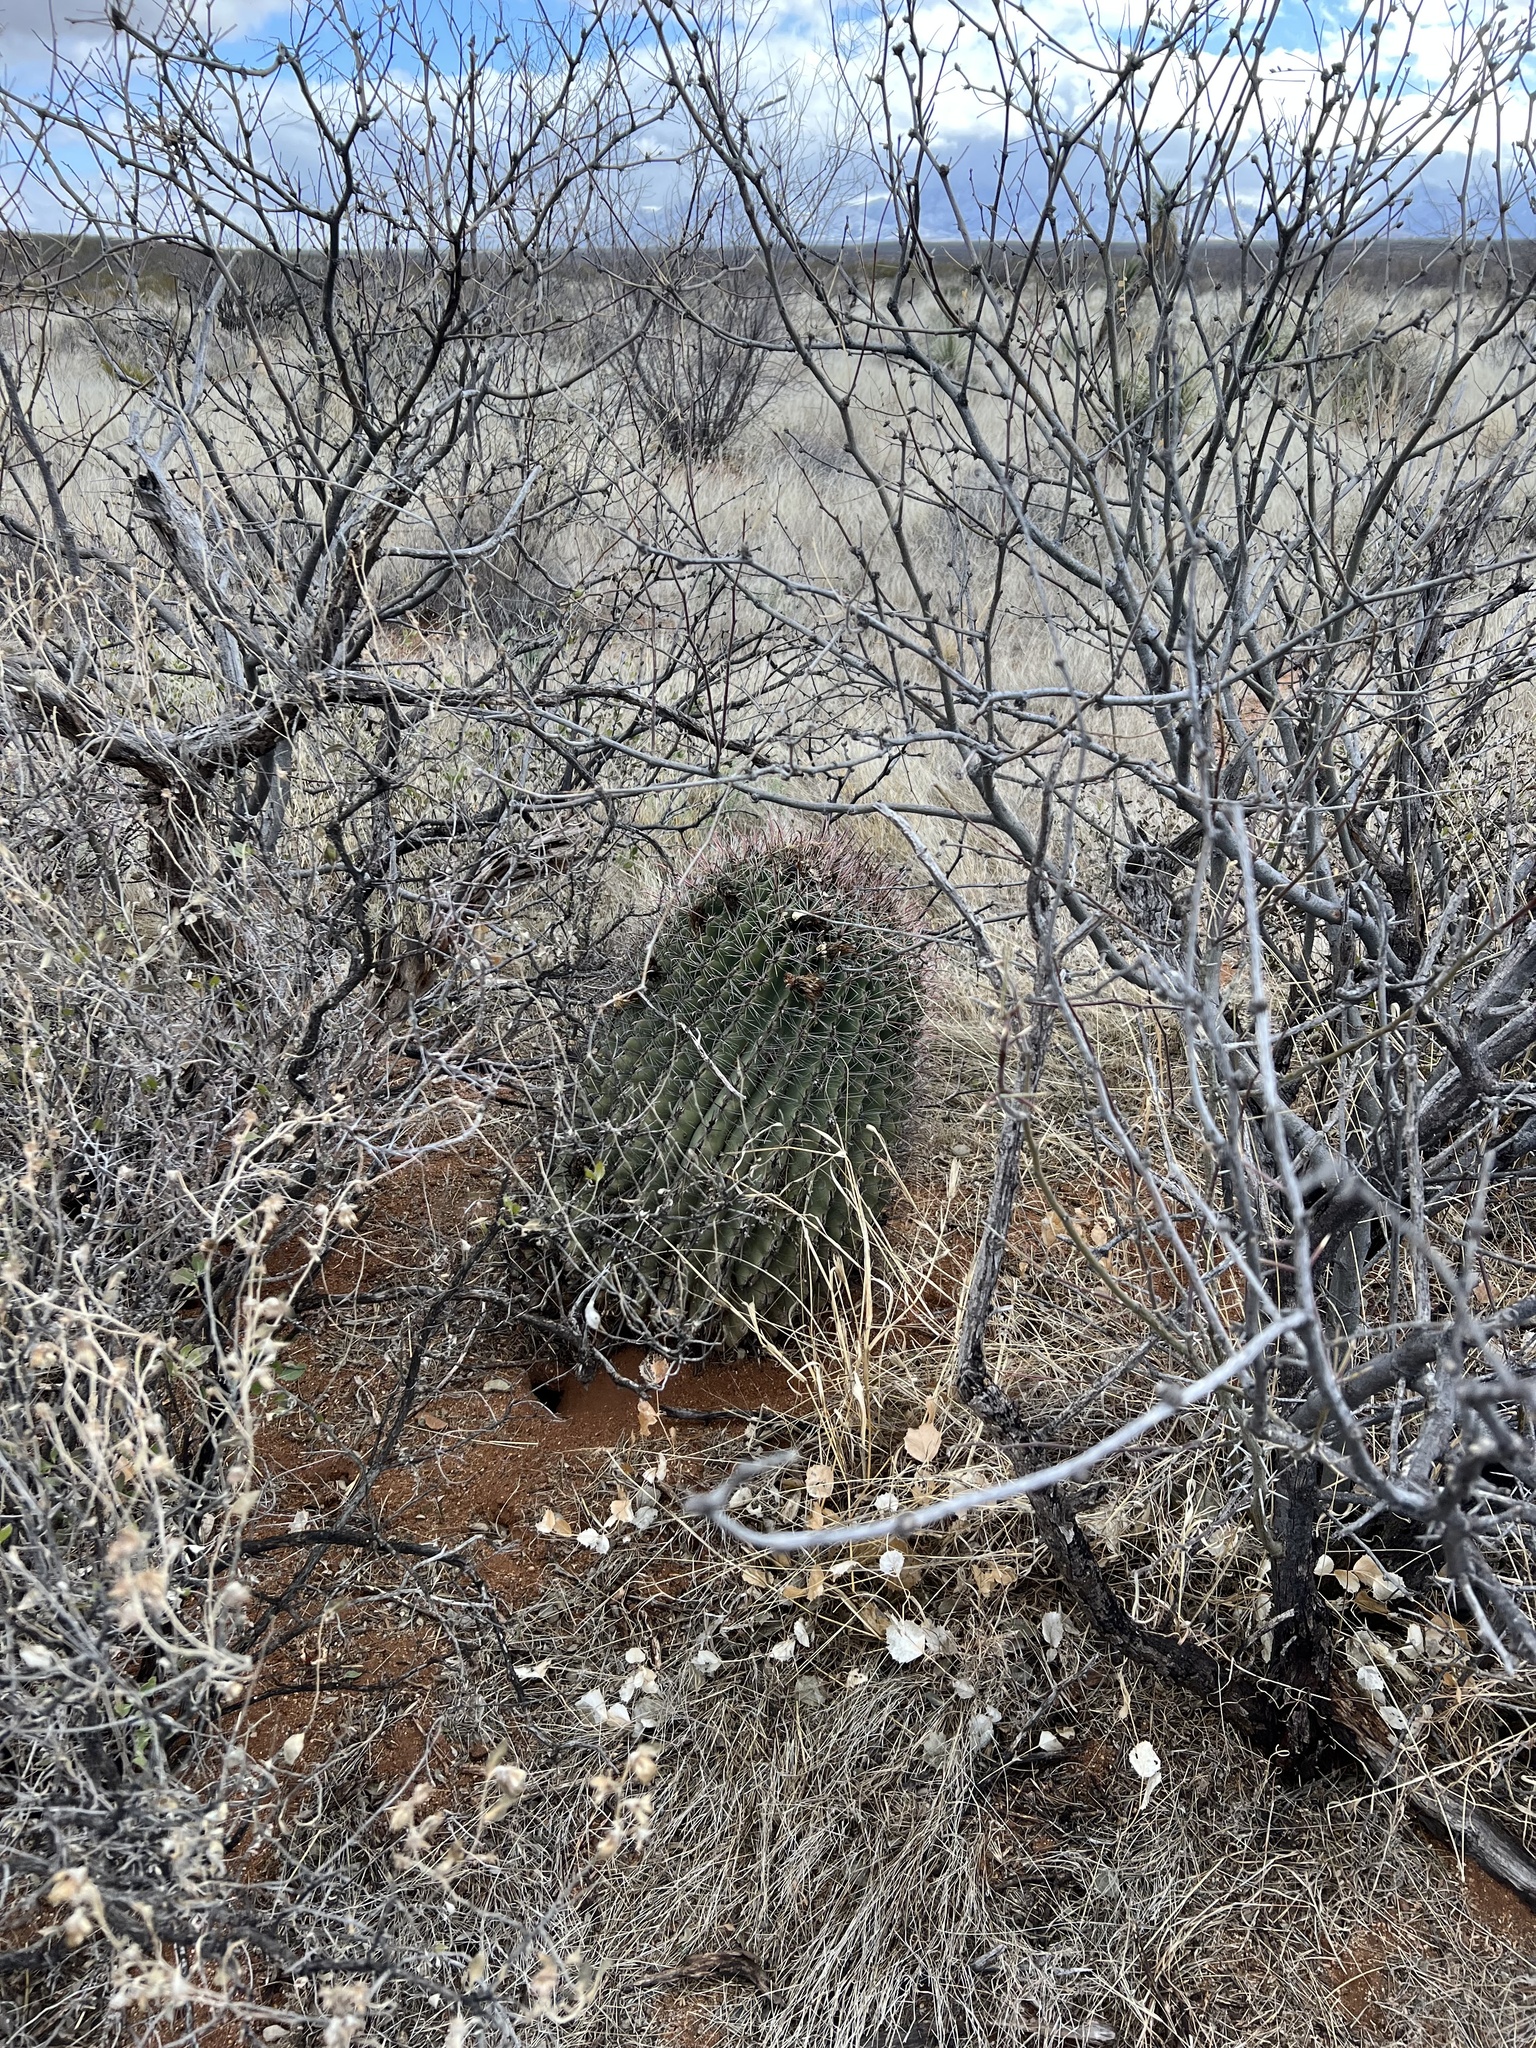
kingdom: Plantae
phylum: Tracheophyta
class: Magnoliopsida
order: Caryophyllales
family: Cactaceae
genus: Ferocactus
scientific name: Ferocactus wislizeni
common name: Candy barrel cactus
